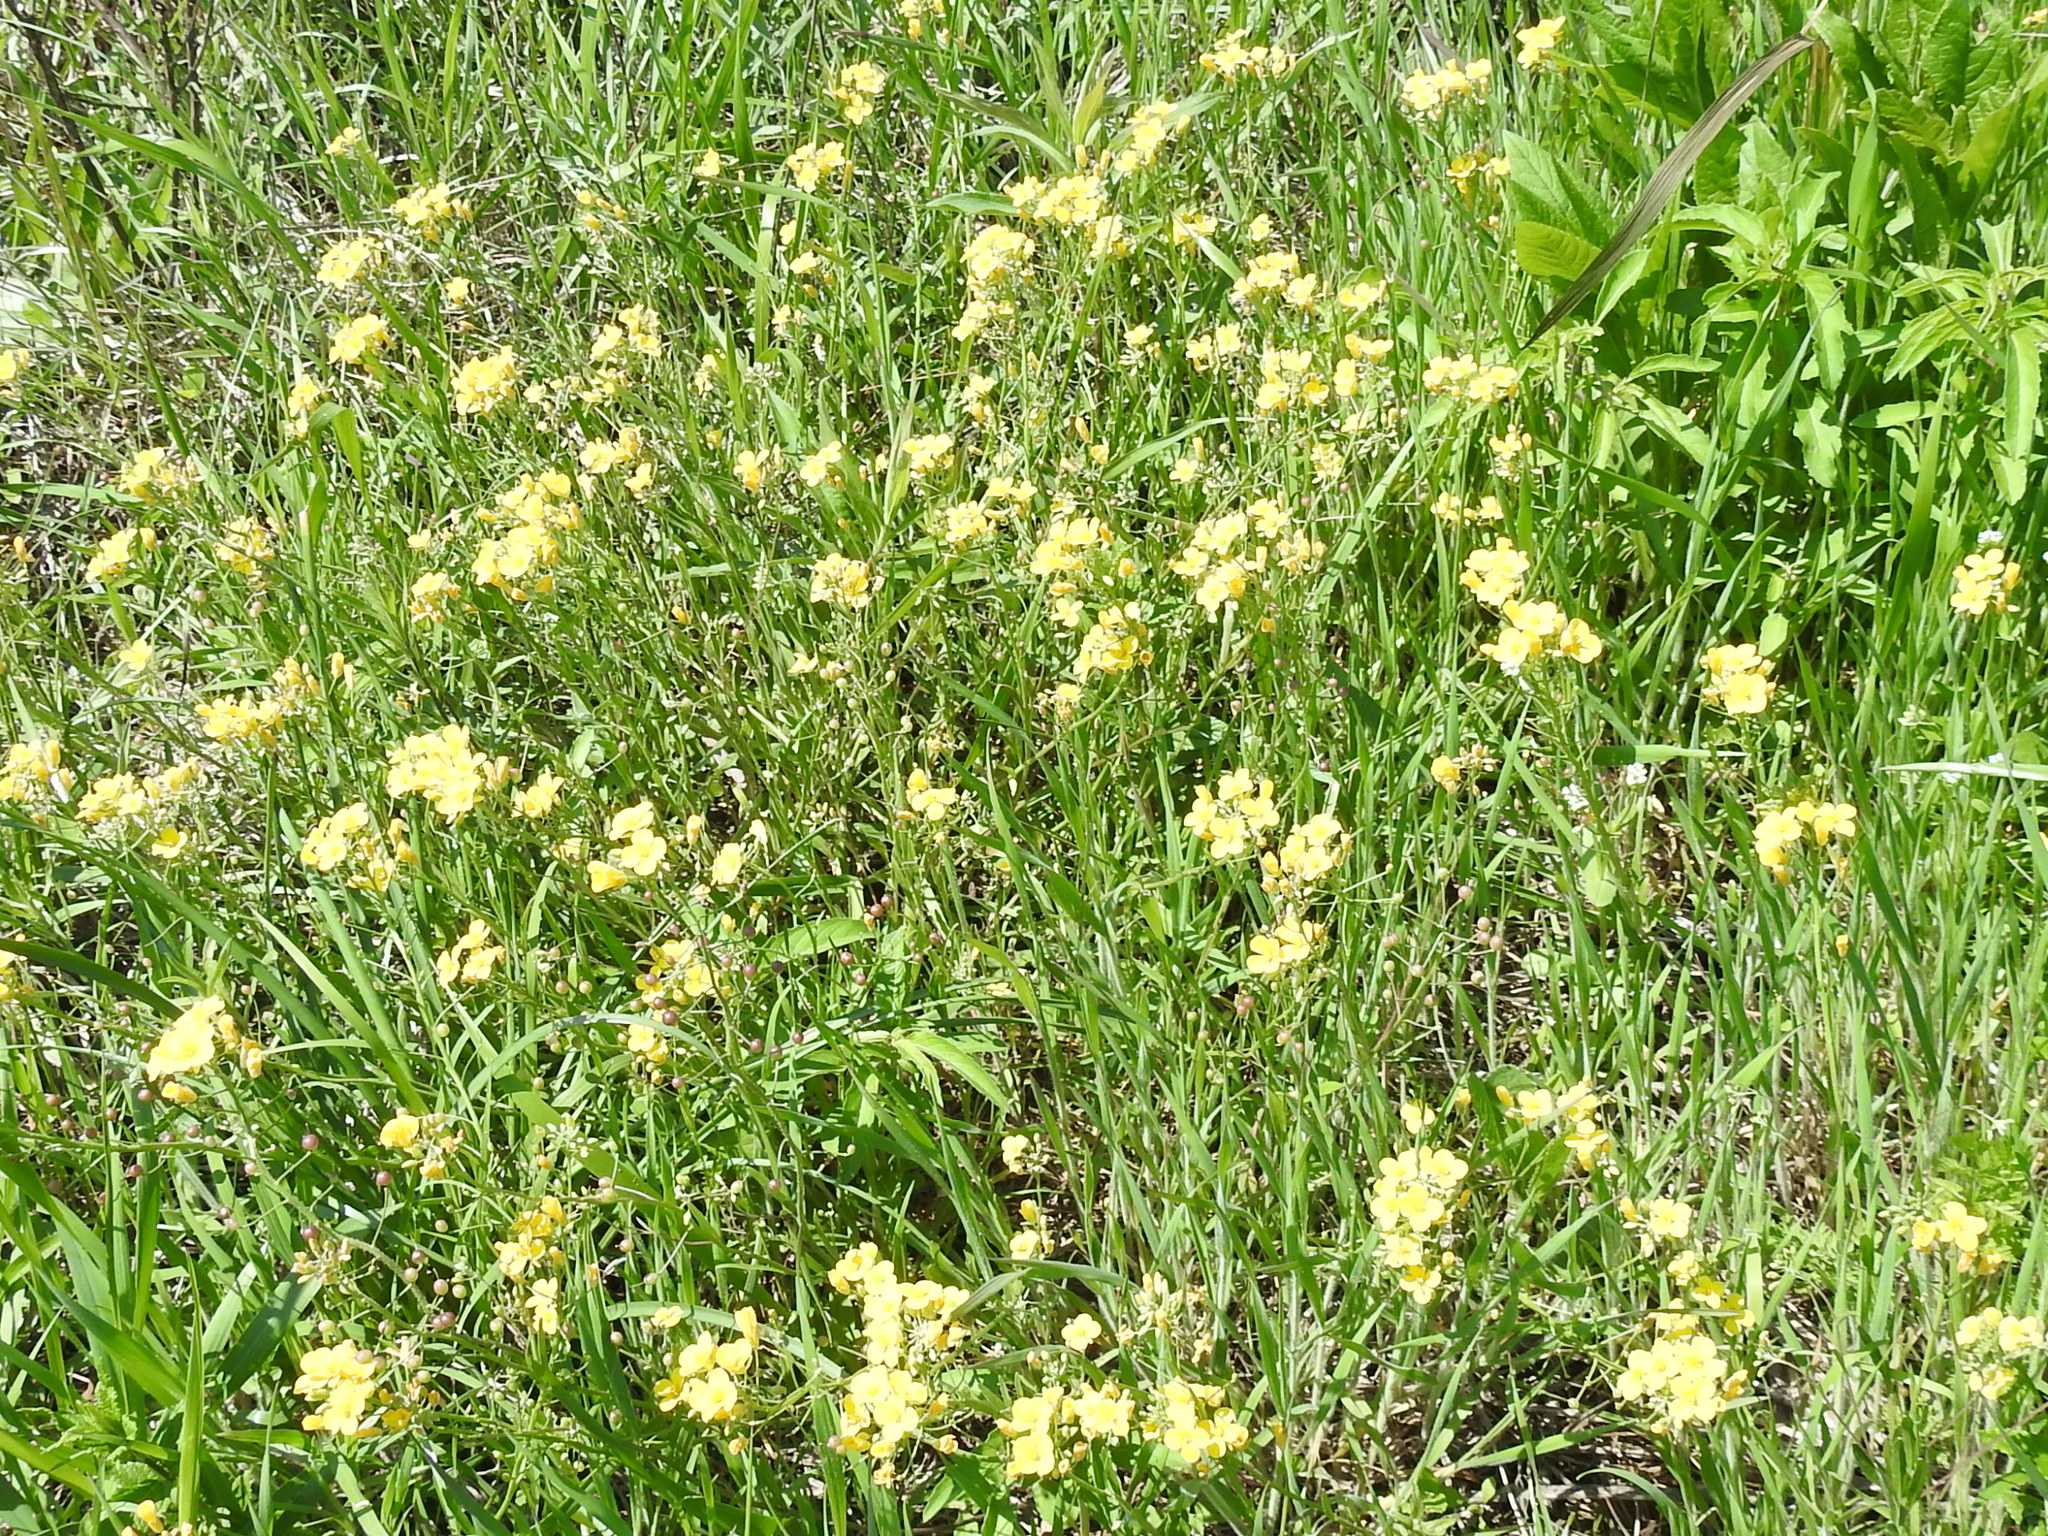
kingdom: Plantae
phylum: Tracheophyta
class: Magnoliopsida
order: Brassicales
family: Brassicaceae
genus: Physaria
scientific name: Physaria gracilis
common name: Spreading bladderpod
